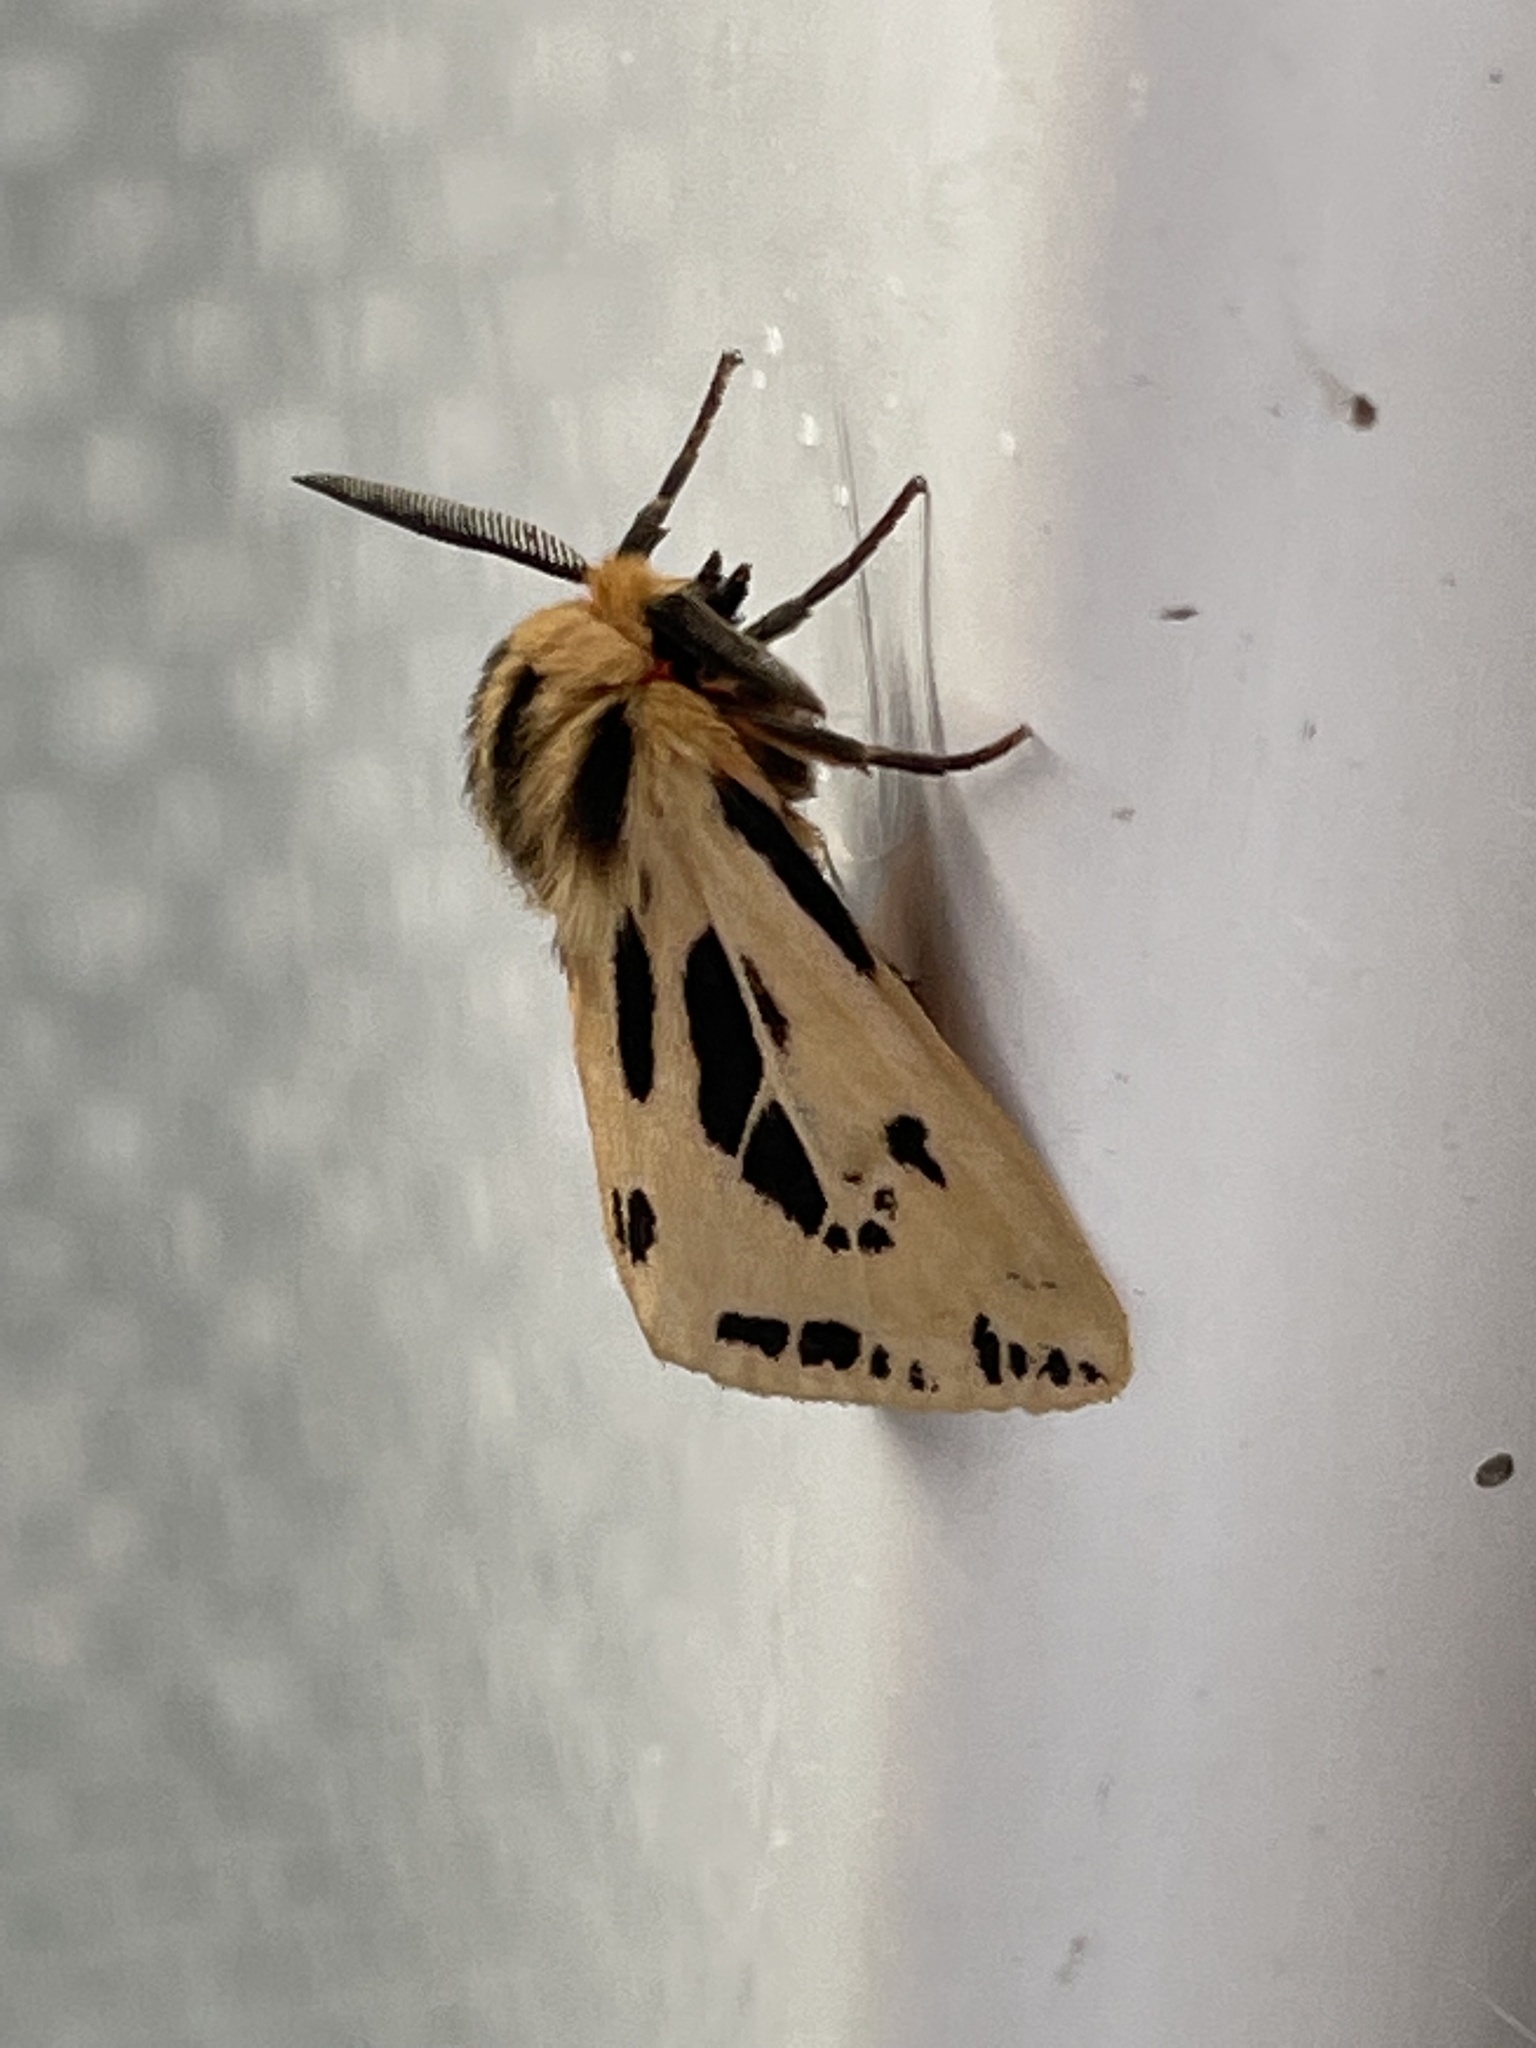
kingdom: Animalia
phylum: Arthropoda
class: Insecta
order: Lepidoptera
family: Erebidae
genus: Ardices
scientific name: Ardices curvata
